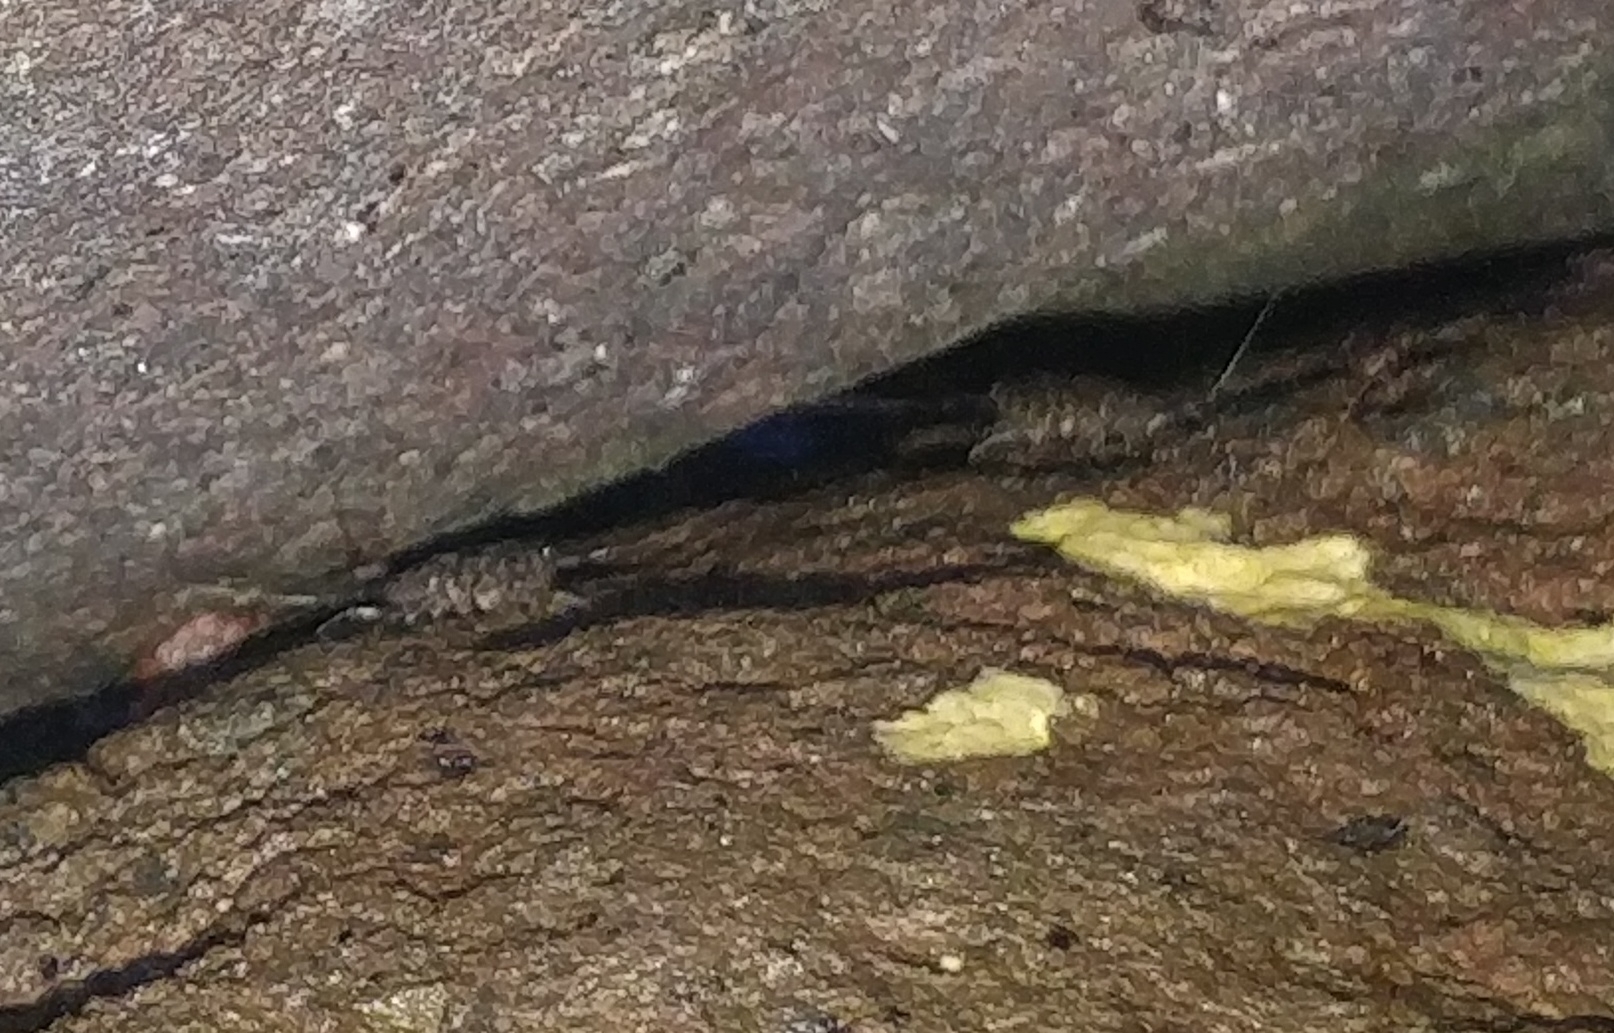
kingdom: Animalia
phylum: Arthropoda
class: Malacostraca
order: Isopoda
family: Ligiidae
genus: Ligia
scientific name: Ligia italica
